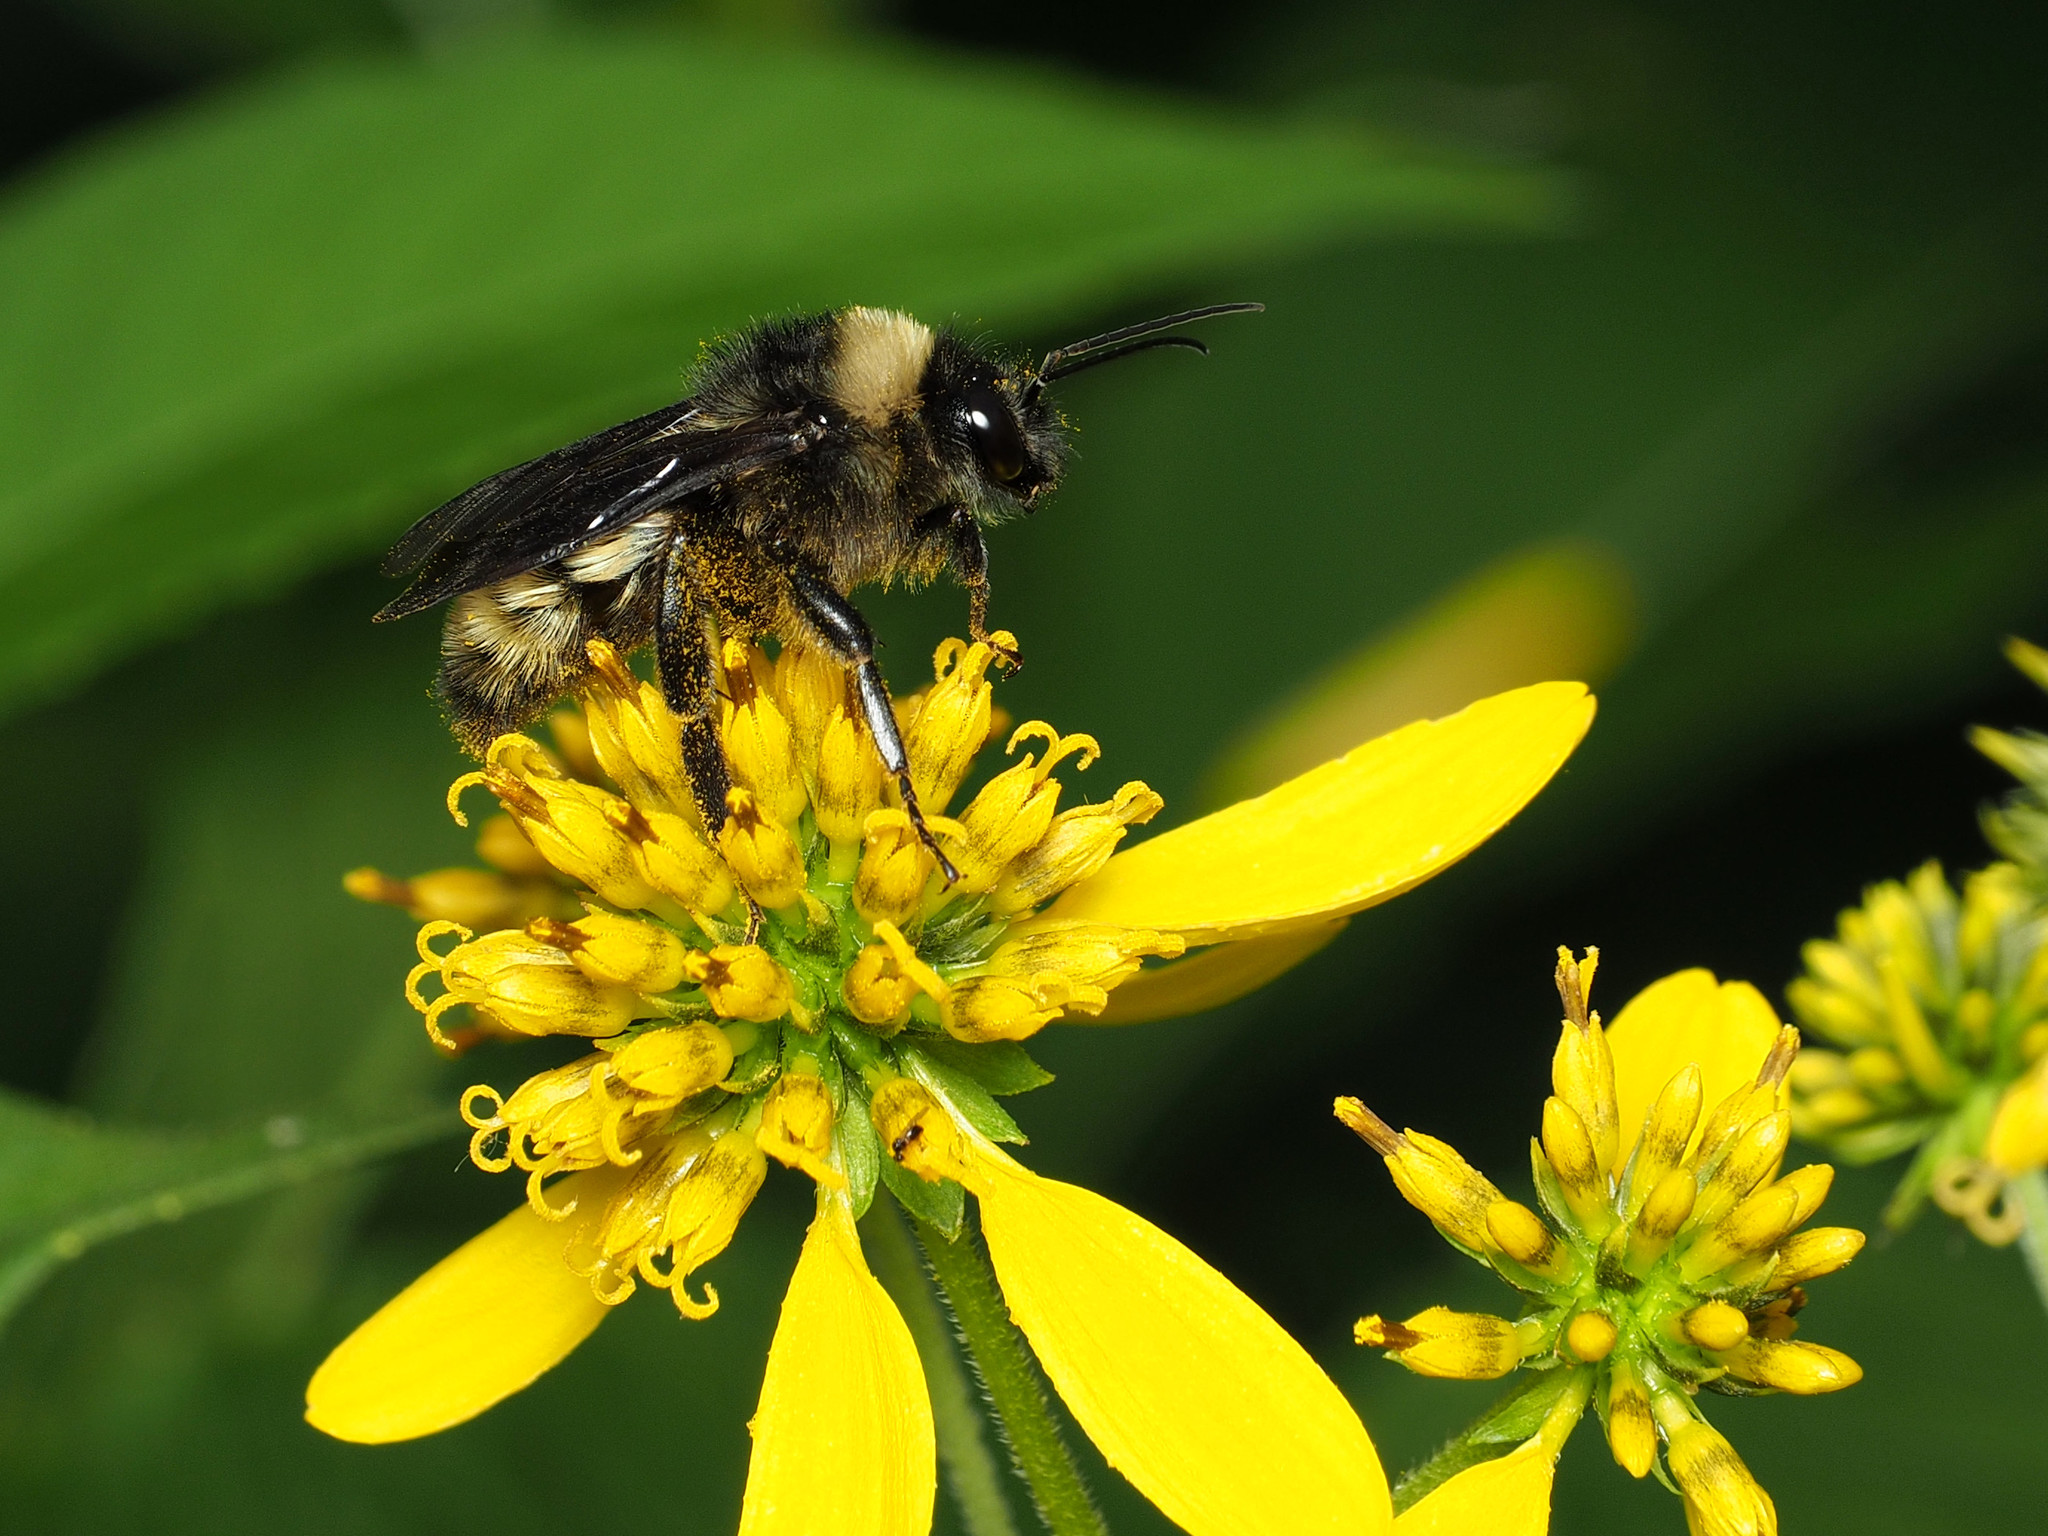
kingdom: Animalia
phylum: Arthropoda
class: Insecta
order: Hymenoptera
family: Apidae
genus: Bombus
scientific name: Bombus pensylvanicus
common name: Bumble bee
